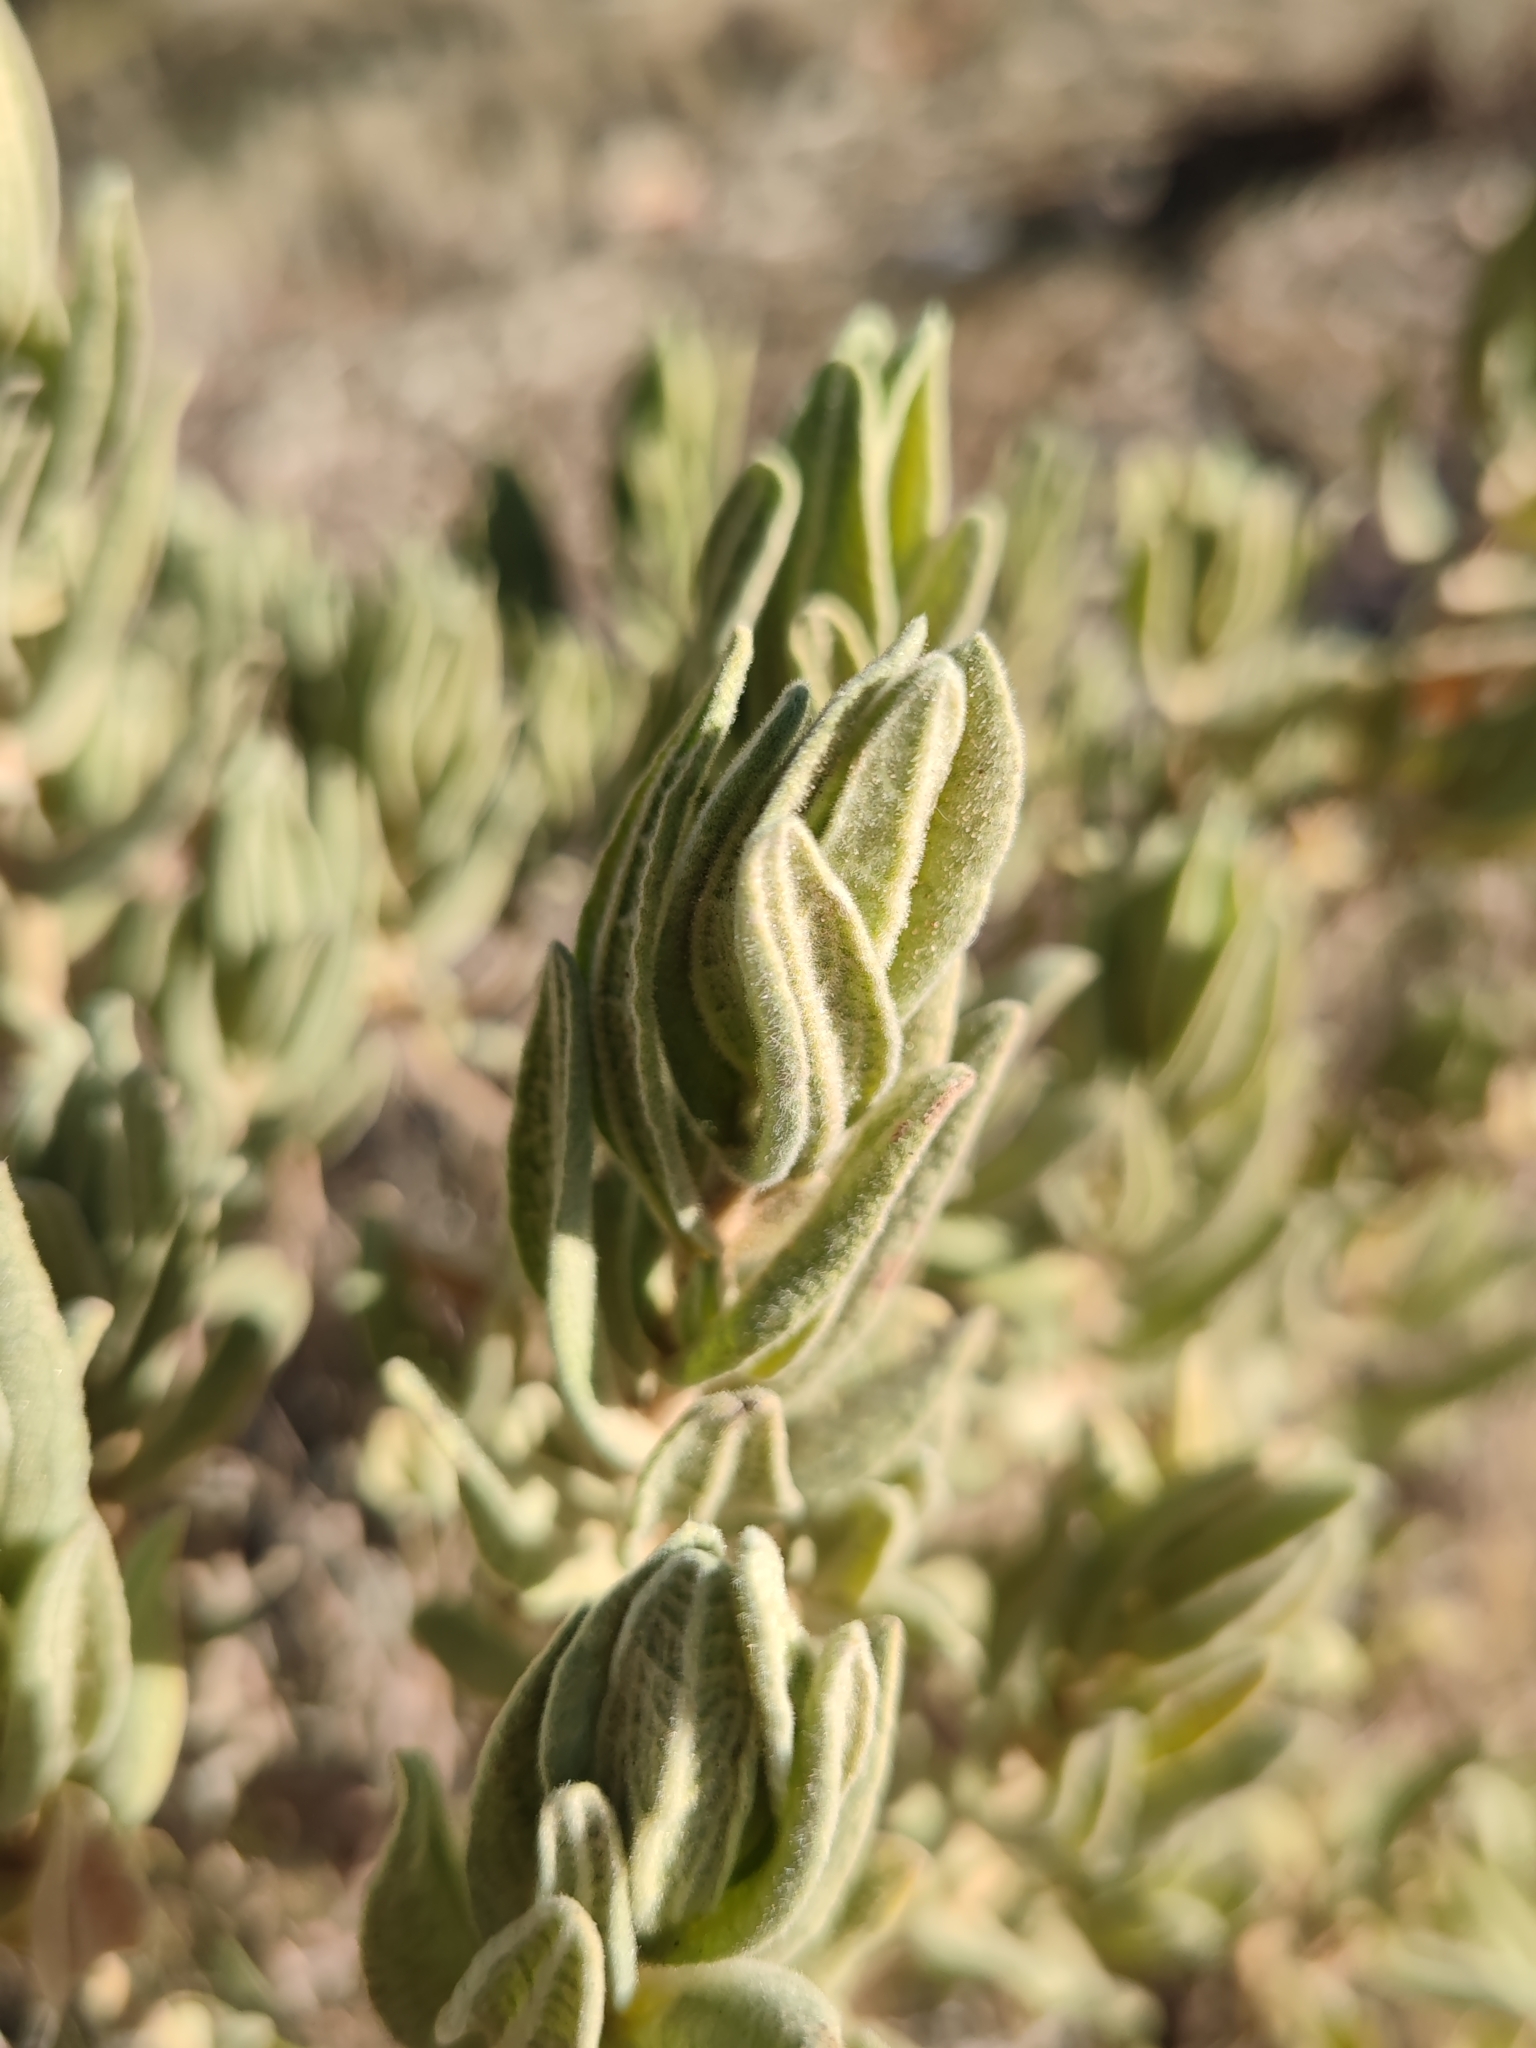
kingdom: Plantae
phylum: Tracheophyta
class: Magnoliopsida
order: Malvales
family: Cistaceae
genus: Cistus
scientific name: Cistus albidus
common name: White-leaf rock-rose
